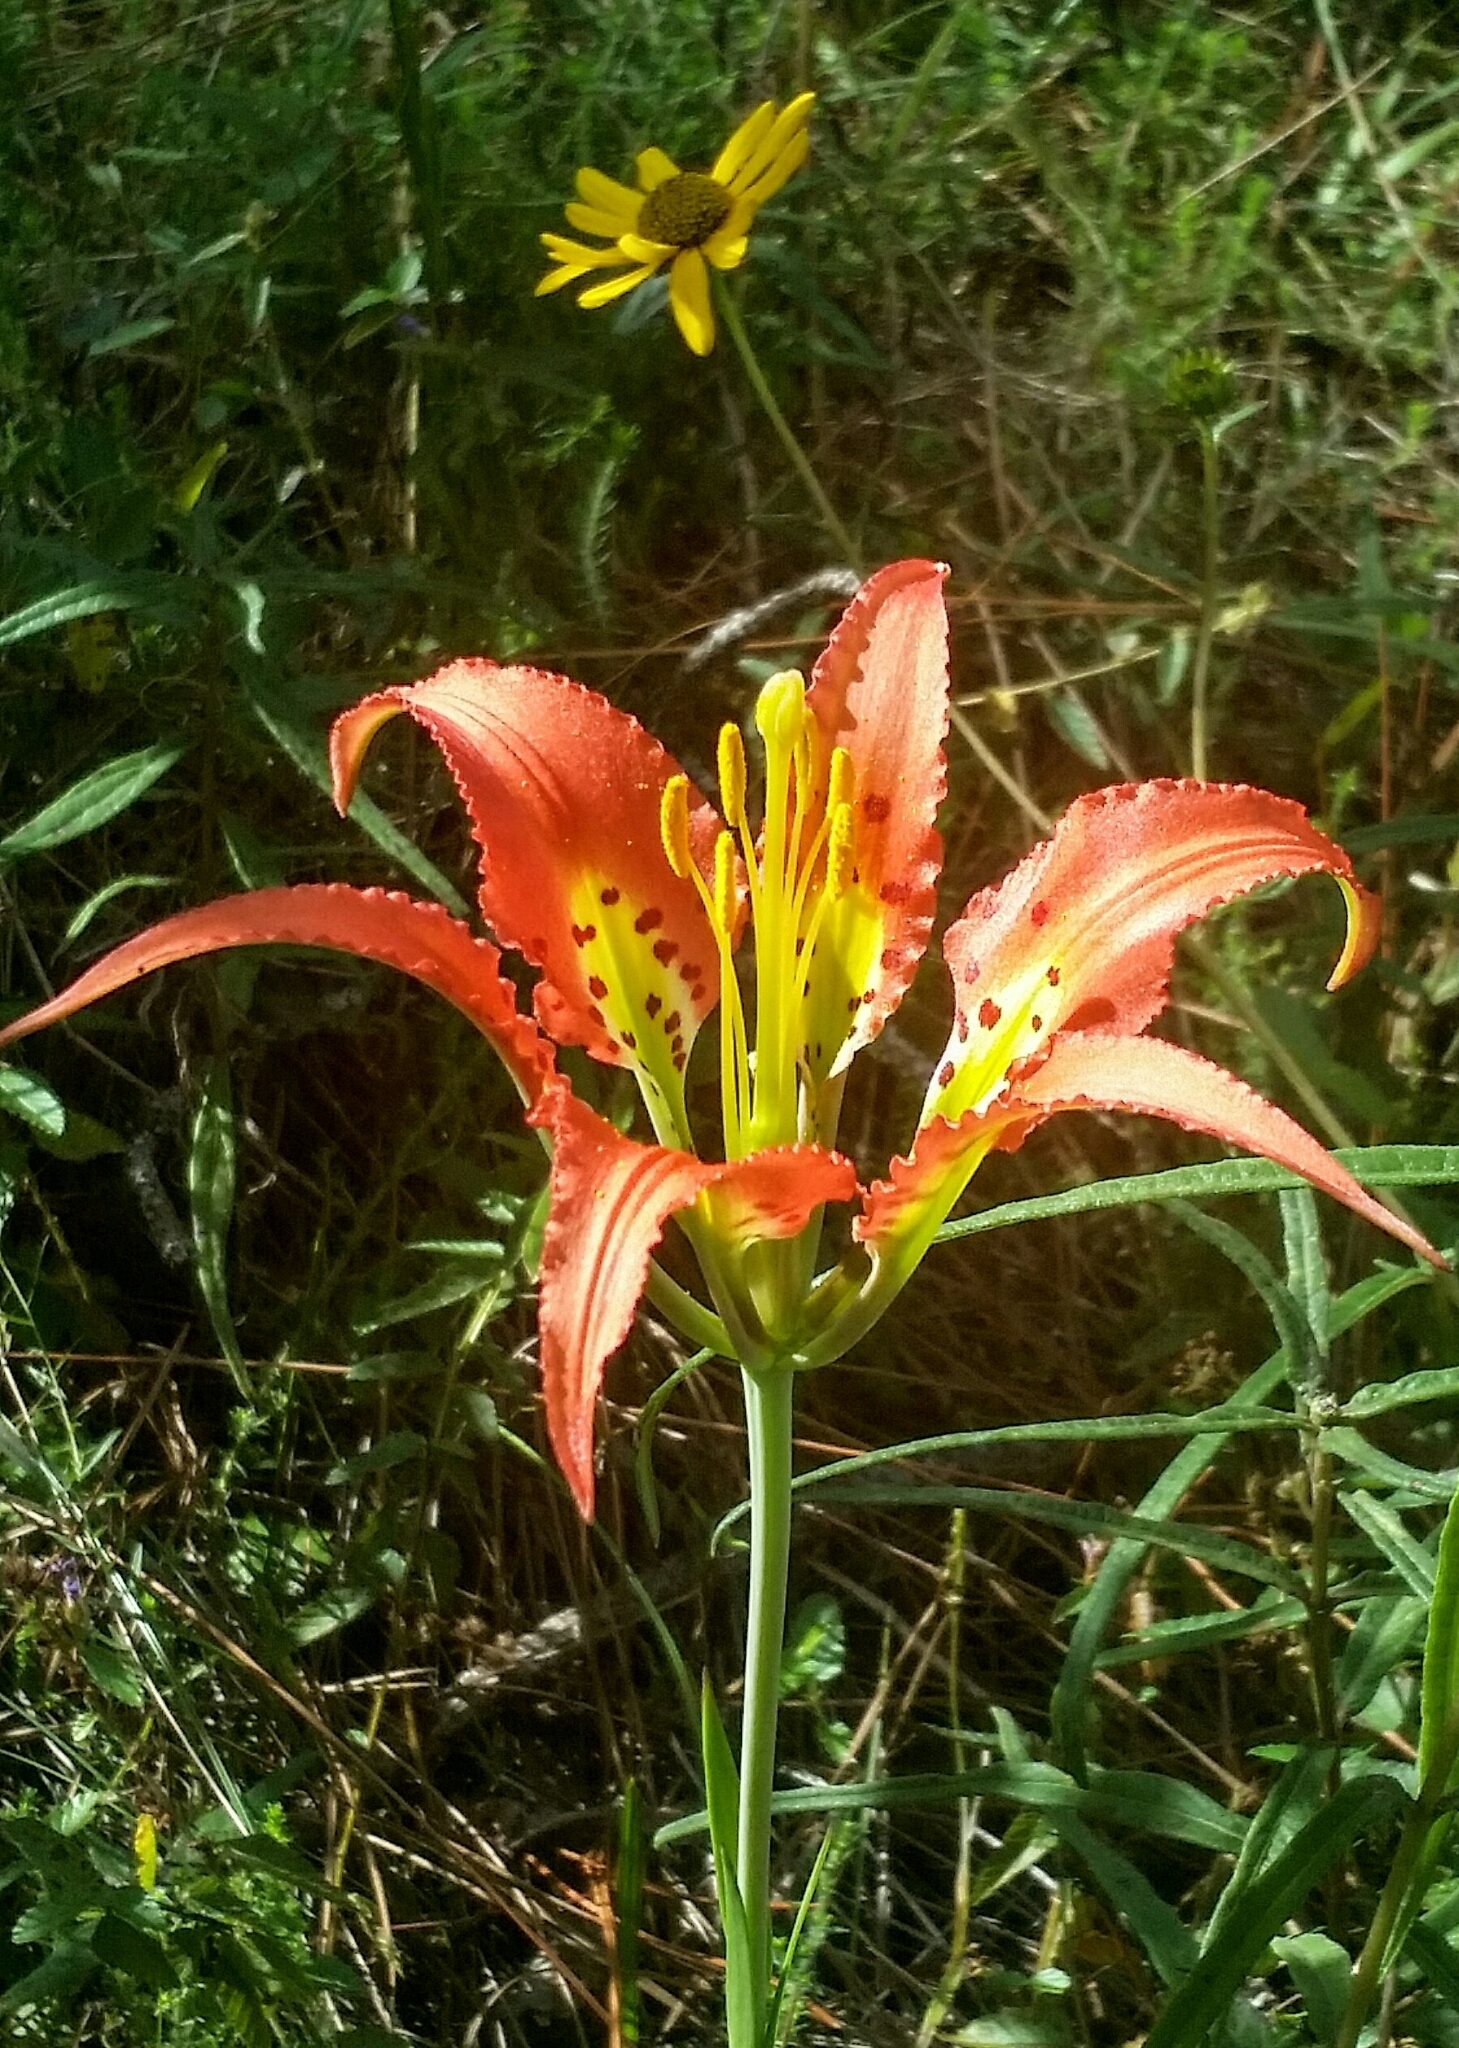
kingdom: Plantae
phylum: Tracheophyta
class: Liliopsida
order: Liliales
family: Liliaceae
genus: Lilium
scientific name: Lilium catesbaei
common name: Catesby's lily
